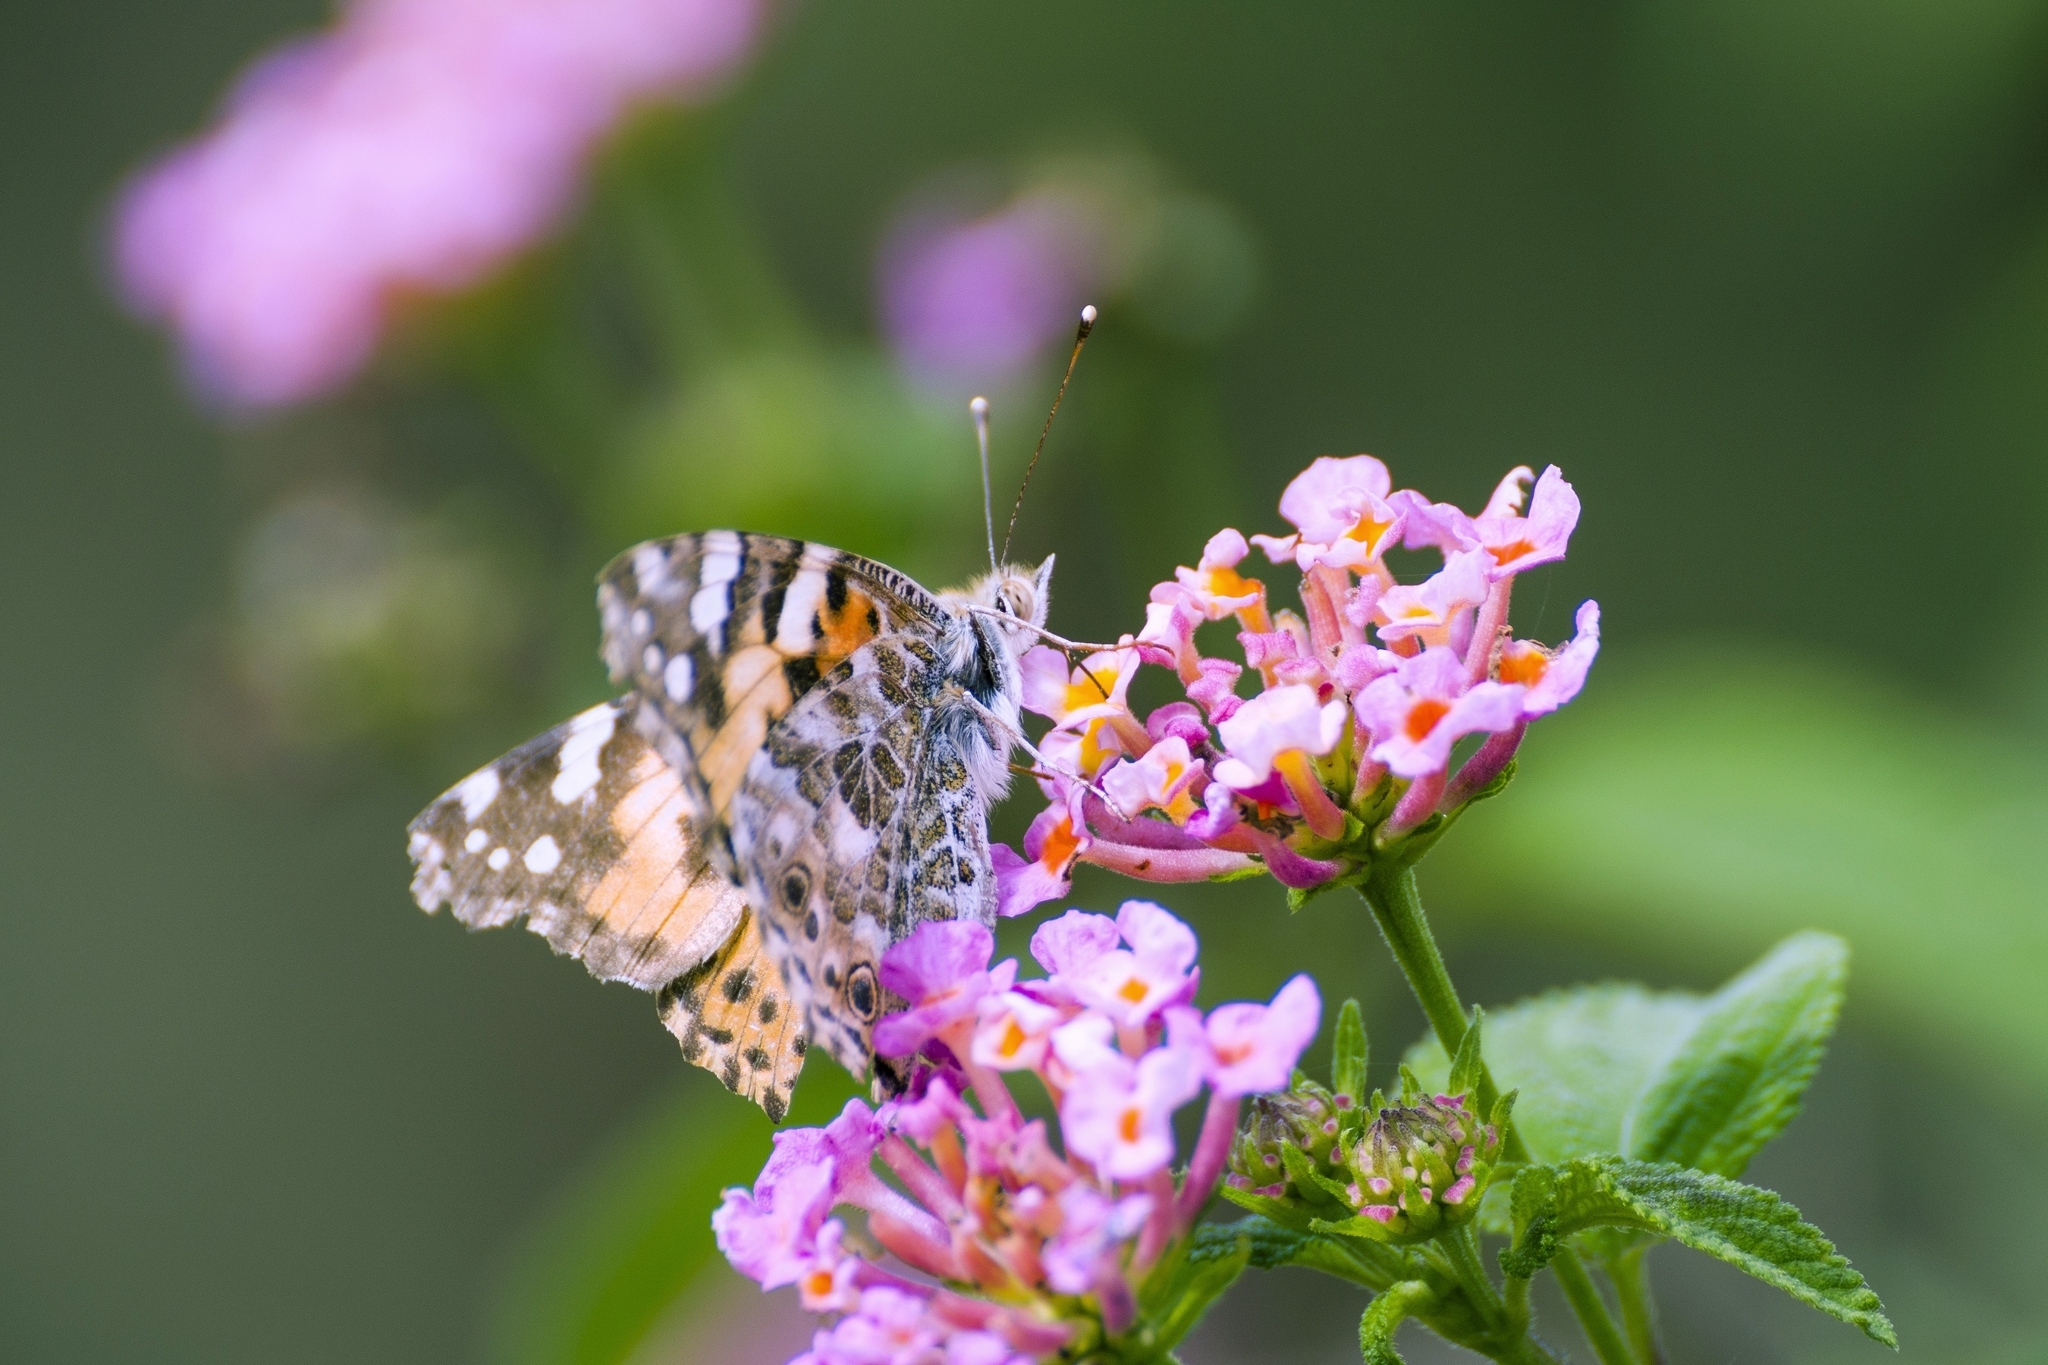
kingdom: Animalia
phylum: Arthropoda
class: Insecta
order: Lepidoptera
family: Nymphalidae
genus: Vanessa
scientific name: Vanessa cardui
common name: Painted lady
